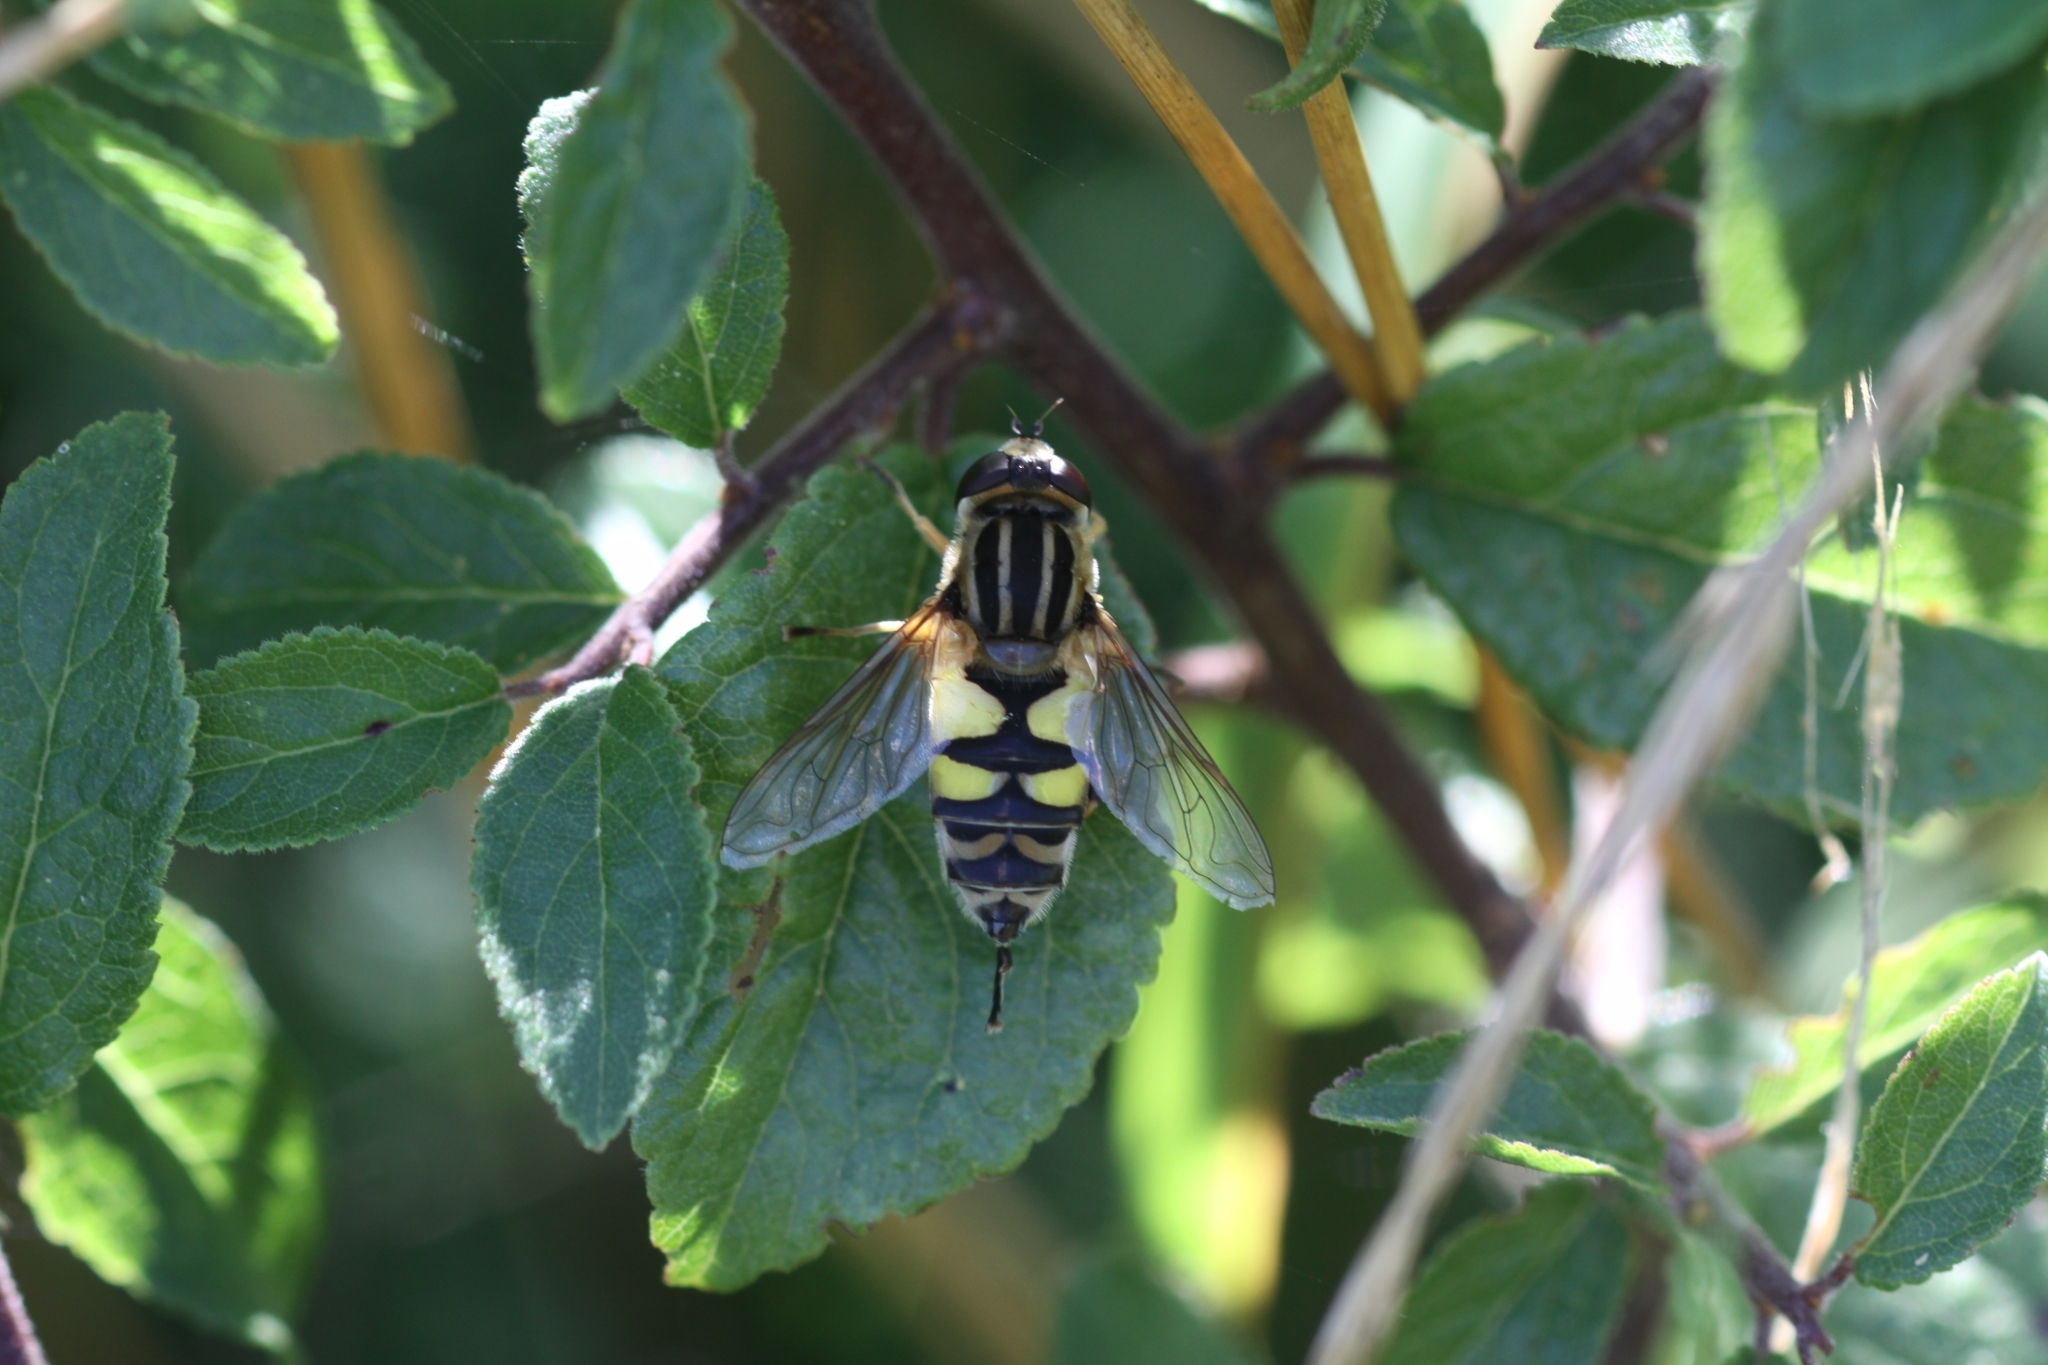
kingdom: Animalia
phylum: Arthropoda
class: Insecta
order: Diptera
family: Syrphidae
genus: Helophilus
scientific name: Helophilus trivittatus
